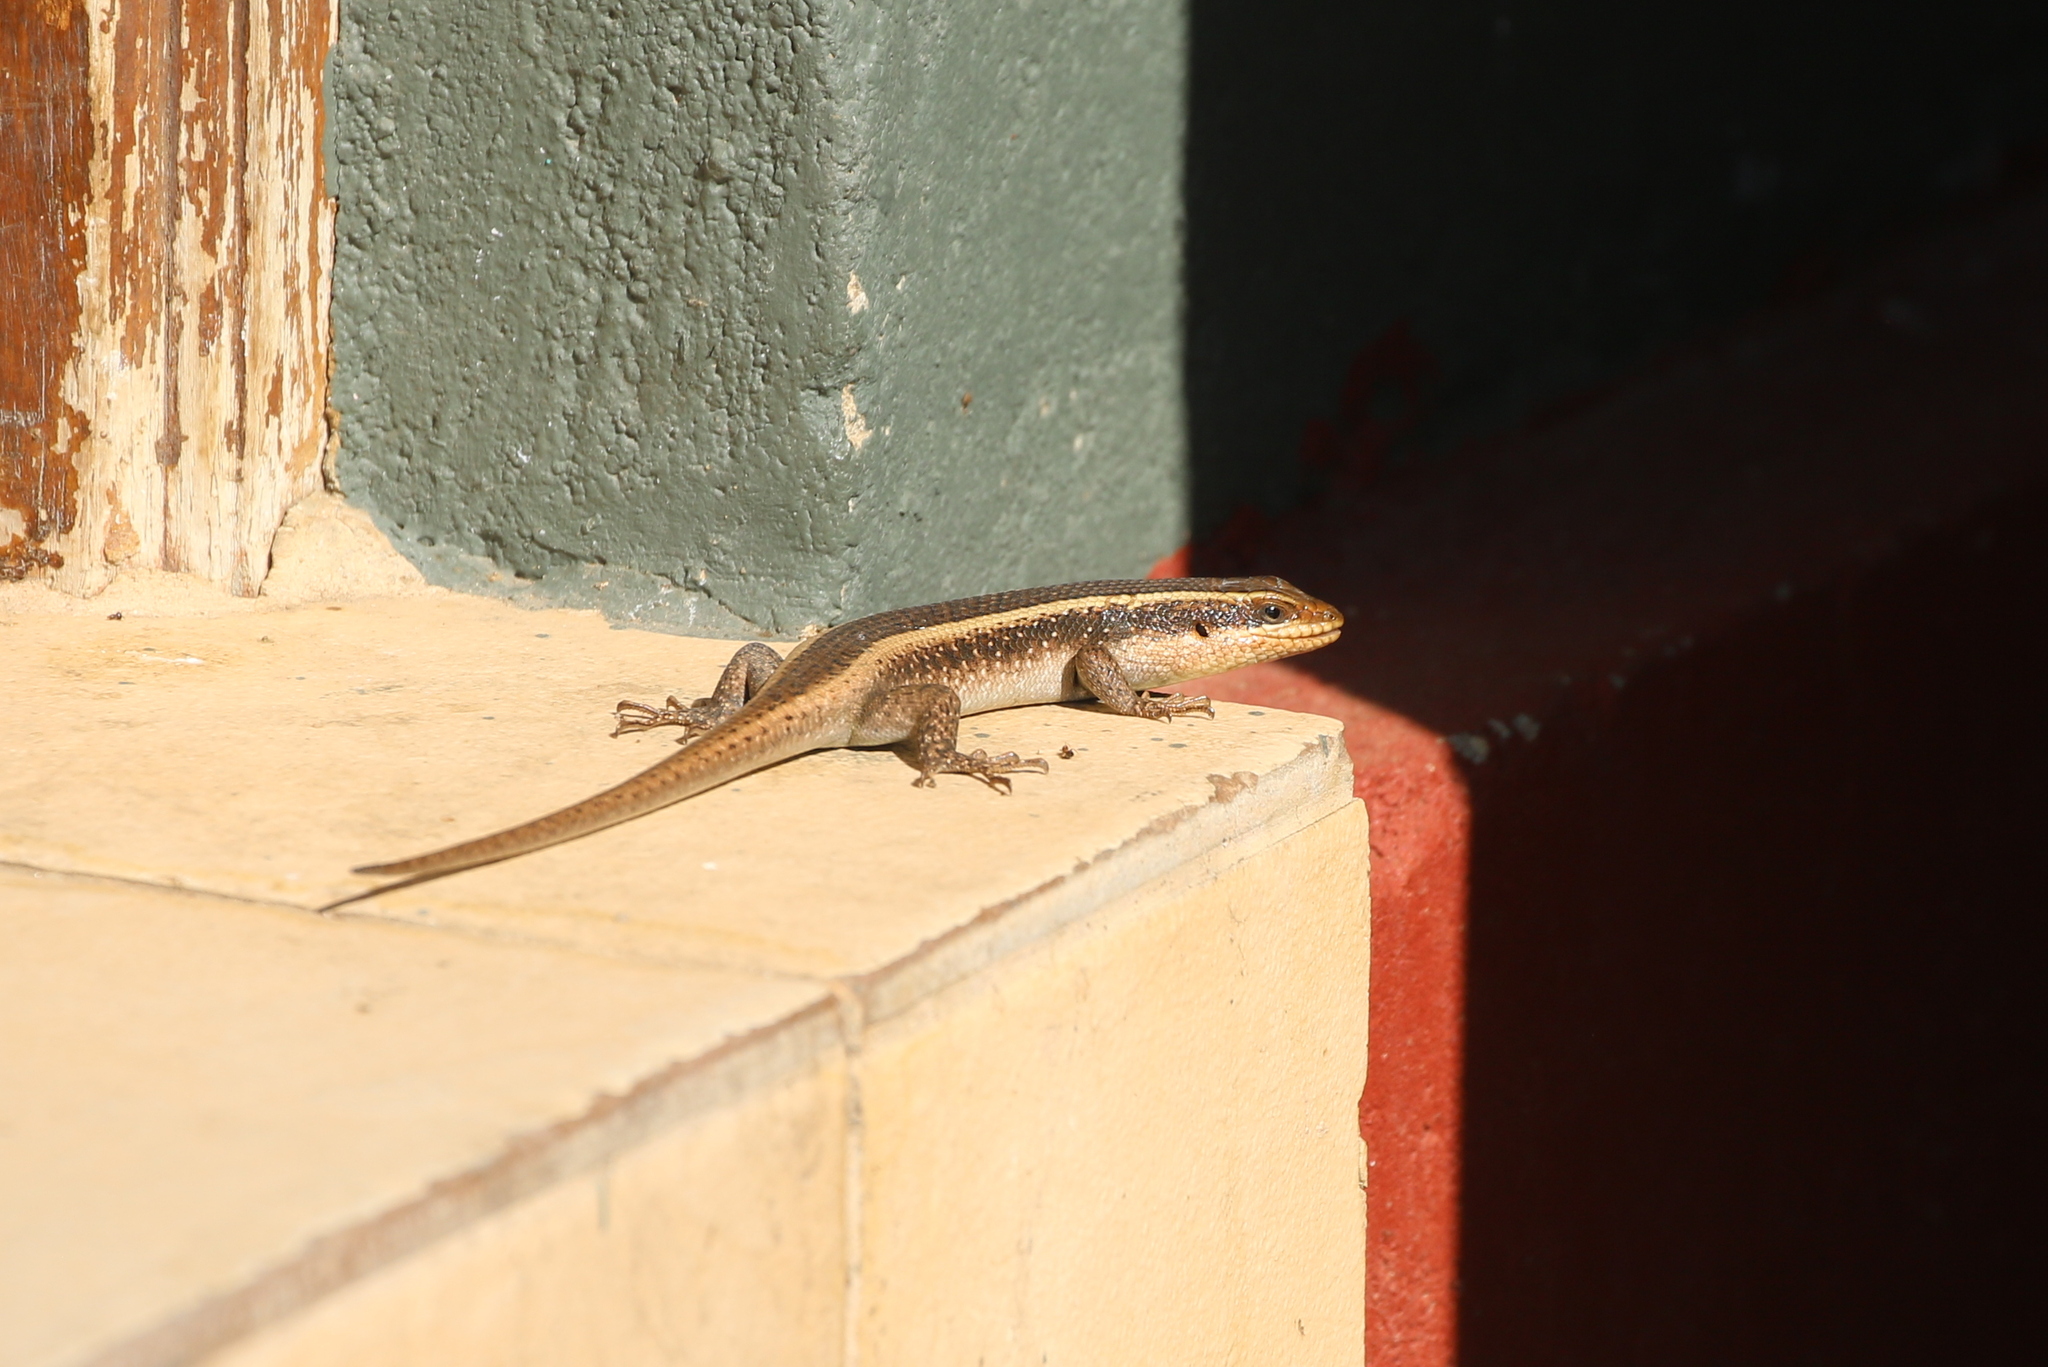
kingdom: Animalia
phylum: Chordata
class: Squamata
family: Scincidae
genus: Trachylepis
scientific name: Trachylepis striata
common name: African striped mabuya
